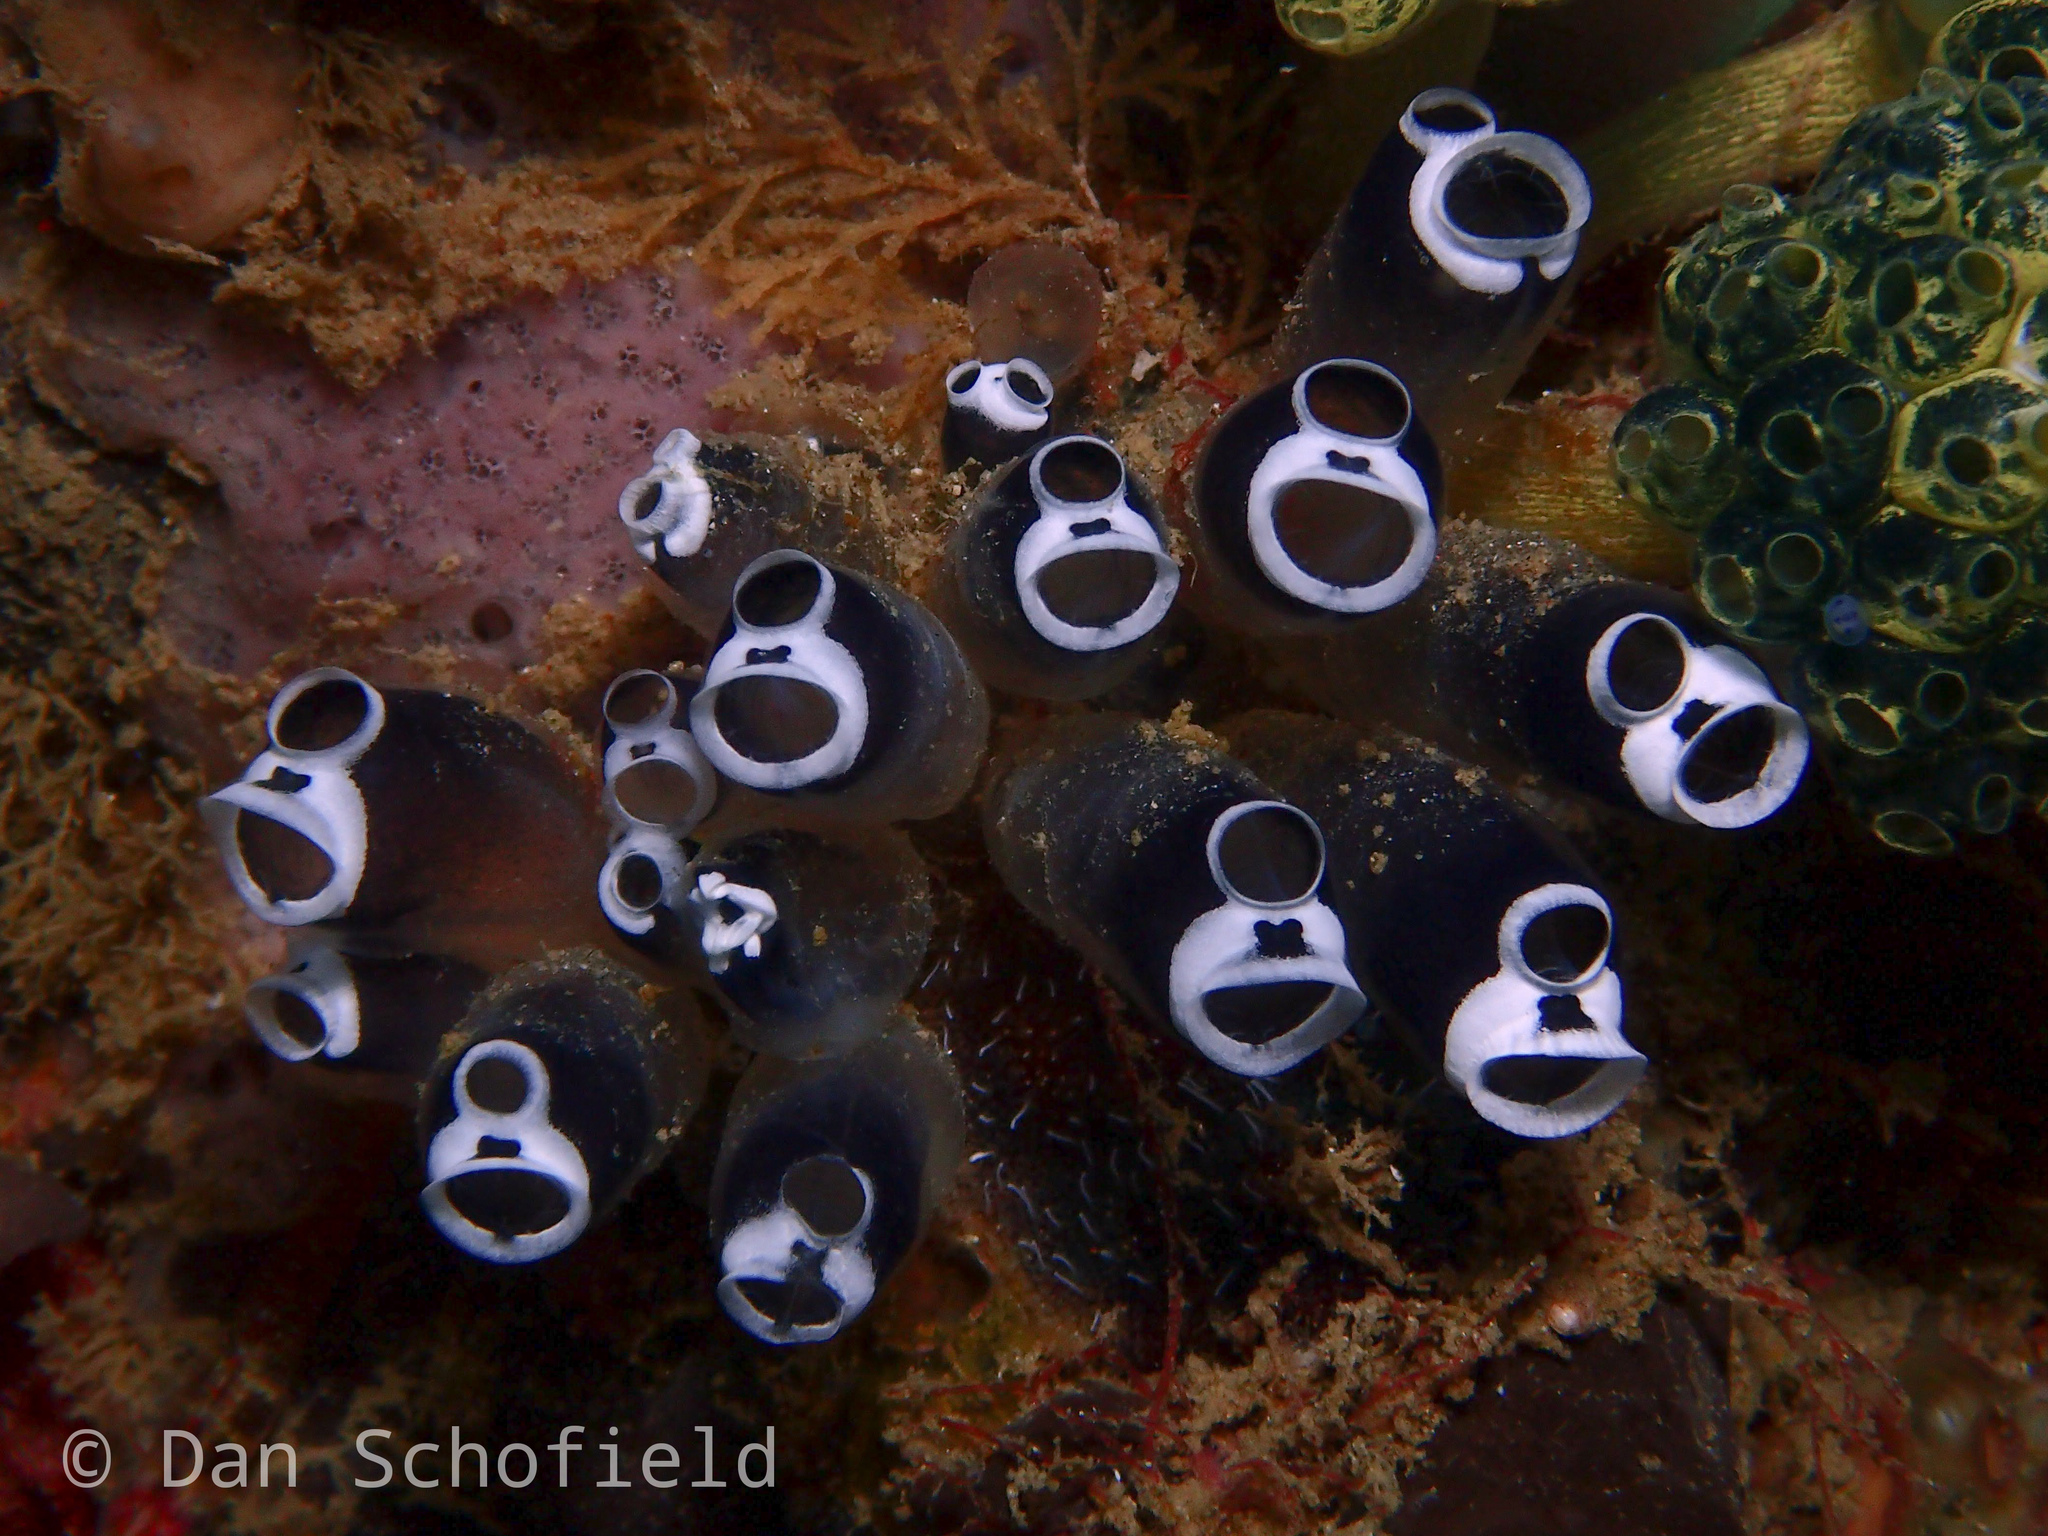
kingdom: Animalia
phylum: Chordata
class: Ascidiacea
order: Aplousobranchia
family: Clavelinidae
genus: Clavelina
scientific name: Clavelina robusta
